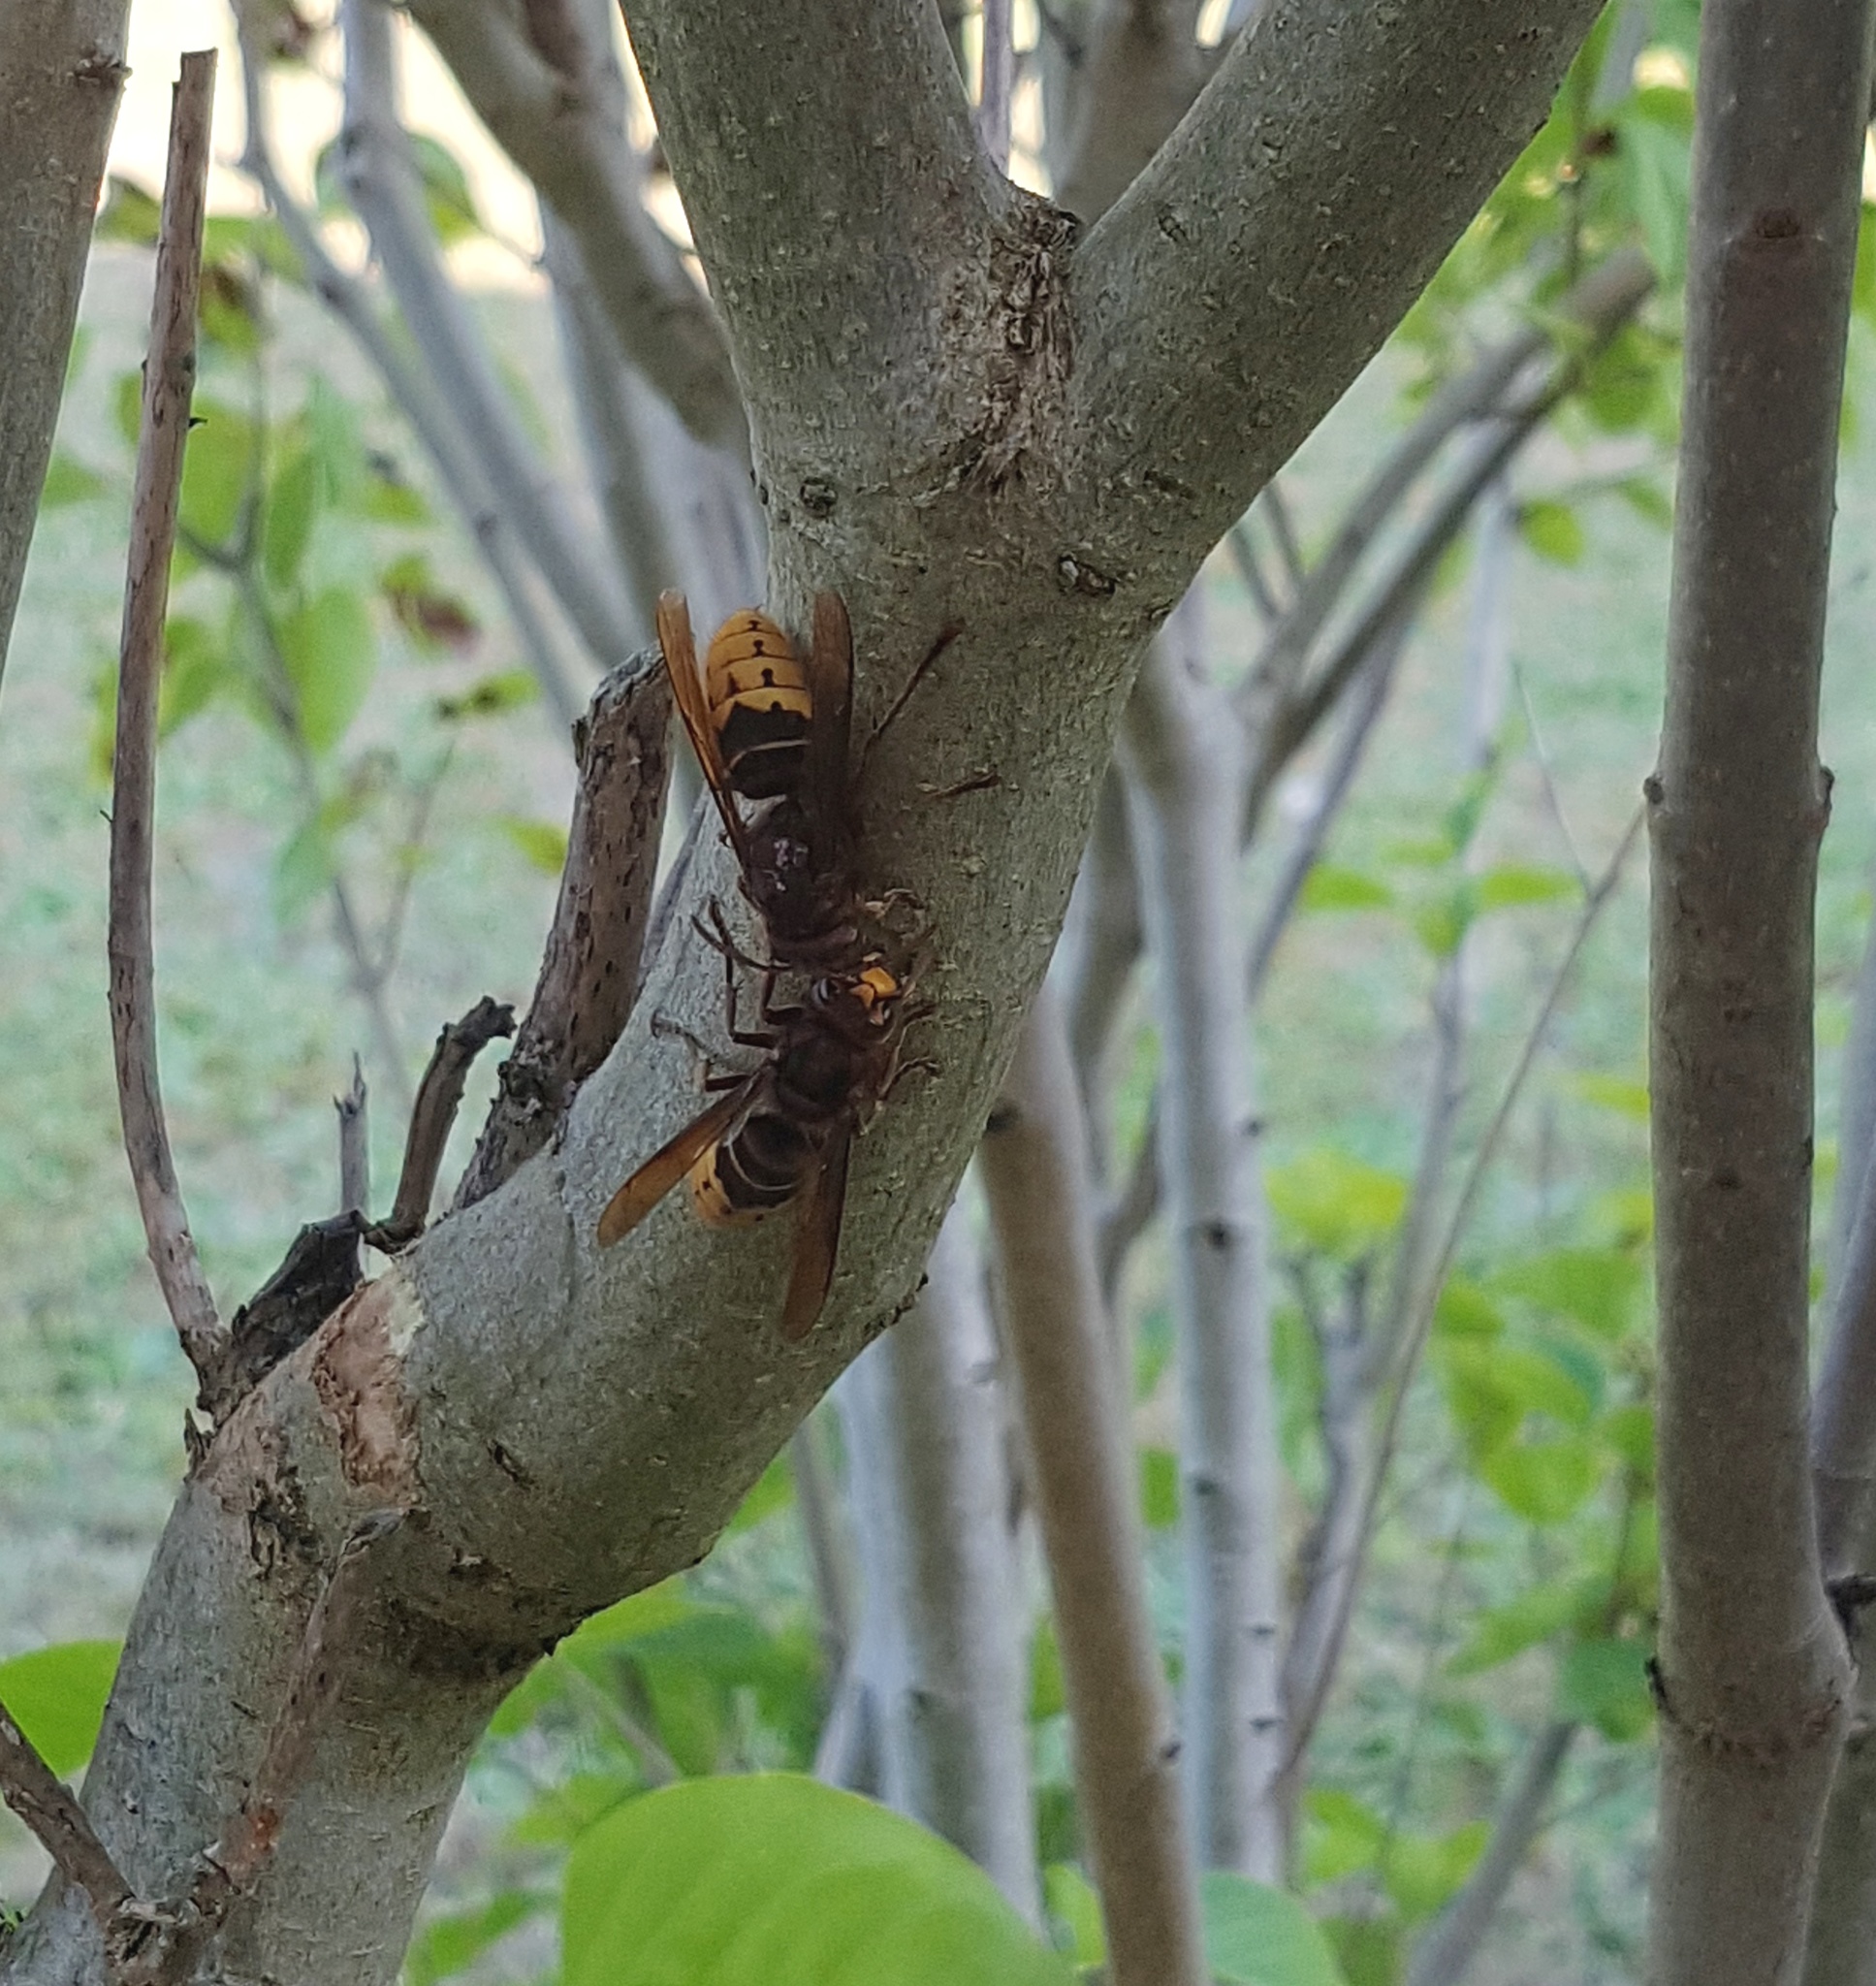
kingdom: Animalia
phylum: Arthropoda
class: Insecta
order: Hymenoptera
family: Vespidae
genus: Vespa
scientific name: Vespa crabro
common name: Hornet
